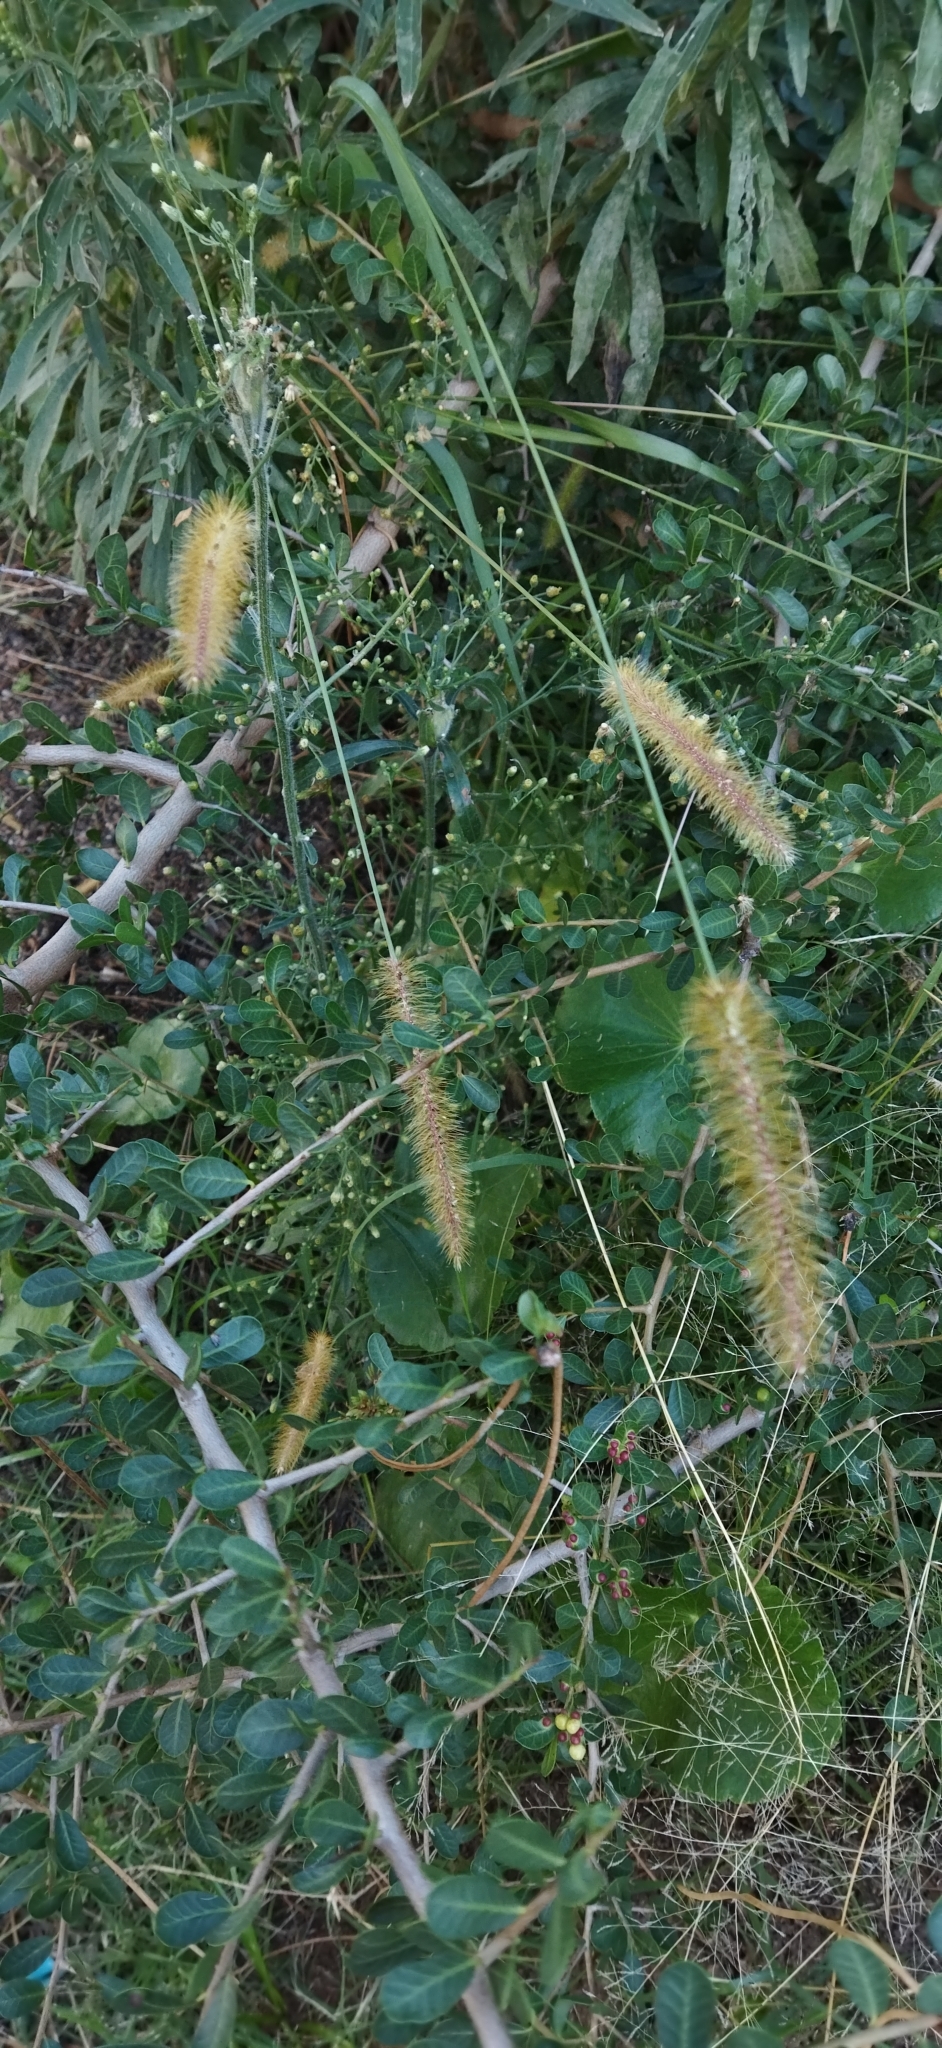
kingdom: Plantae
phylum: Tracheophyta
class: Liliopsida
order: Poales
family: Poaceae
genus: Setaria
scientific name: Setaria parviflora
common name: Knotroot bristle-grass
